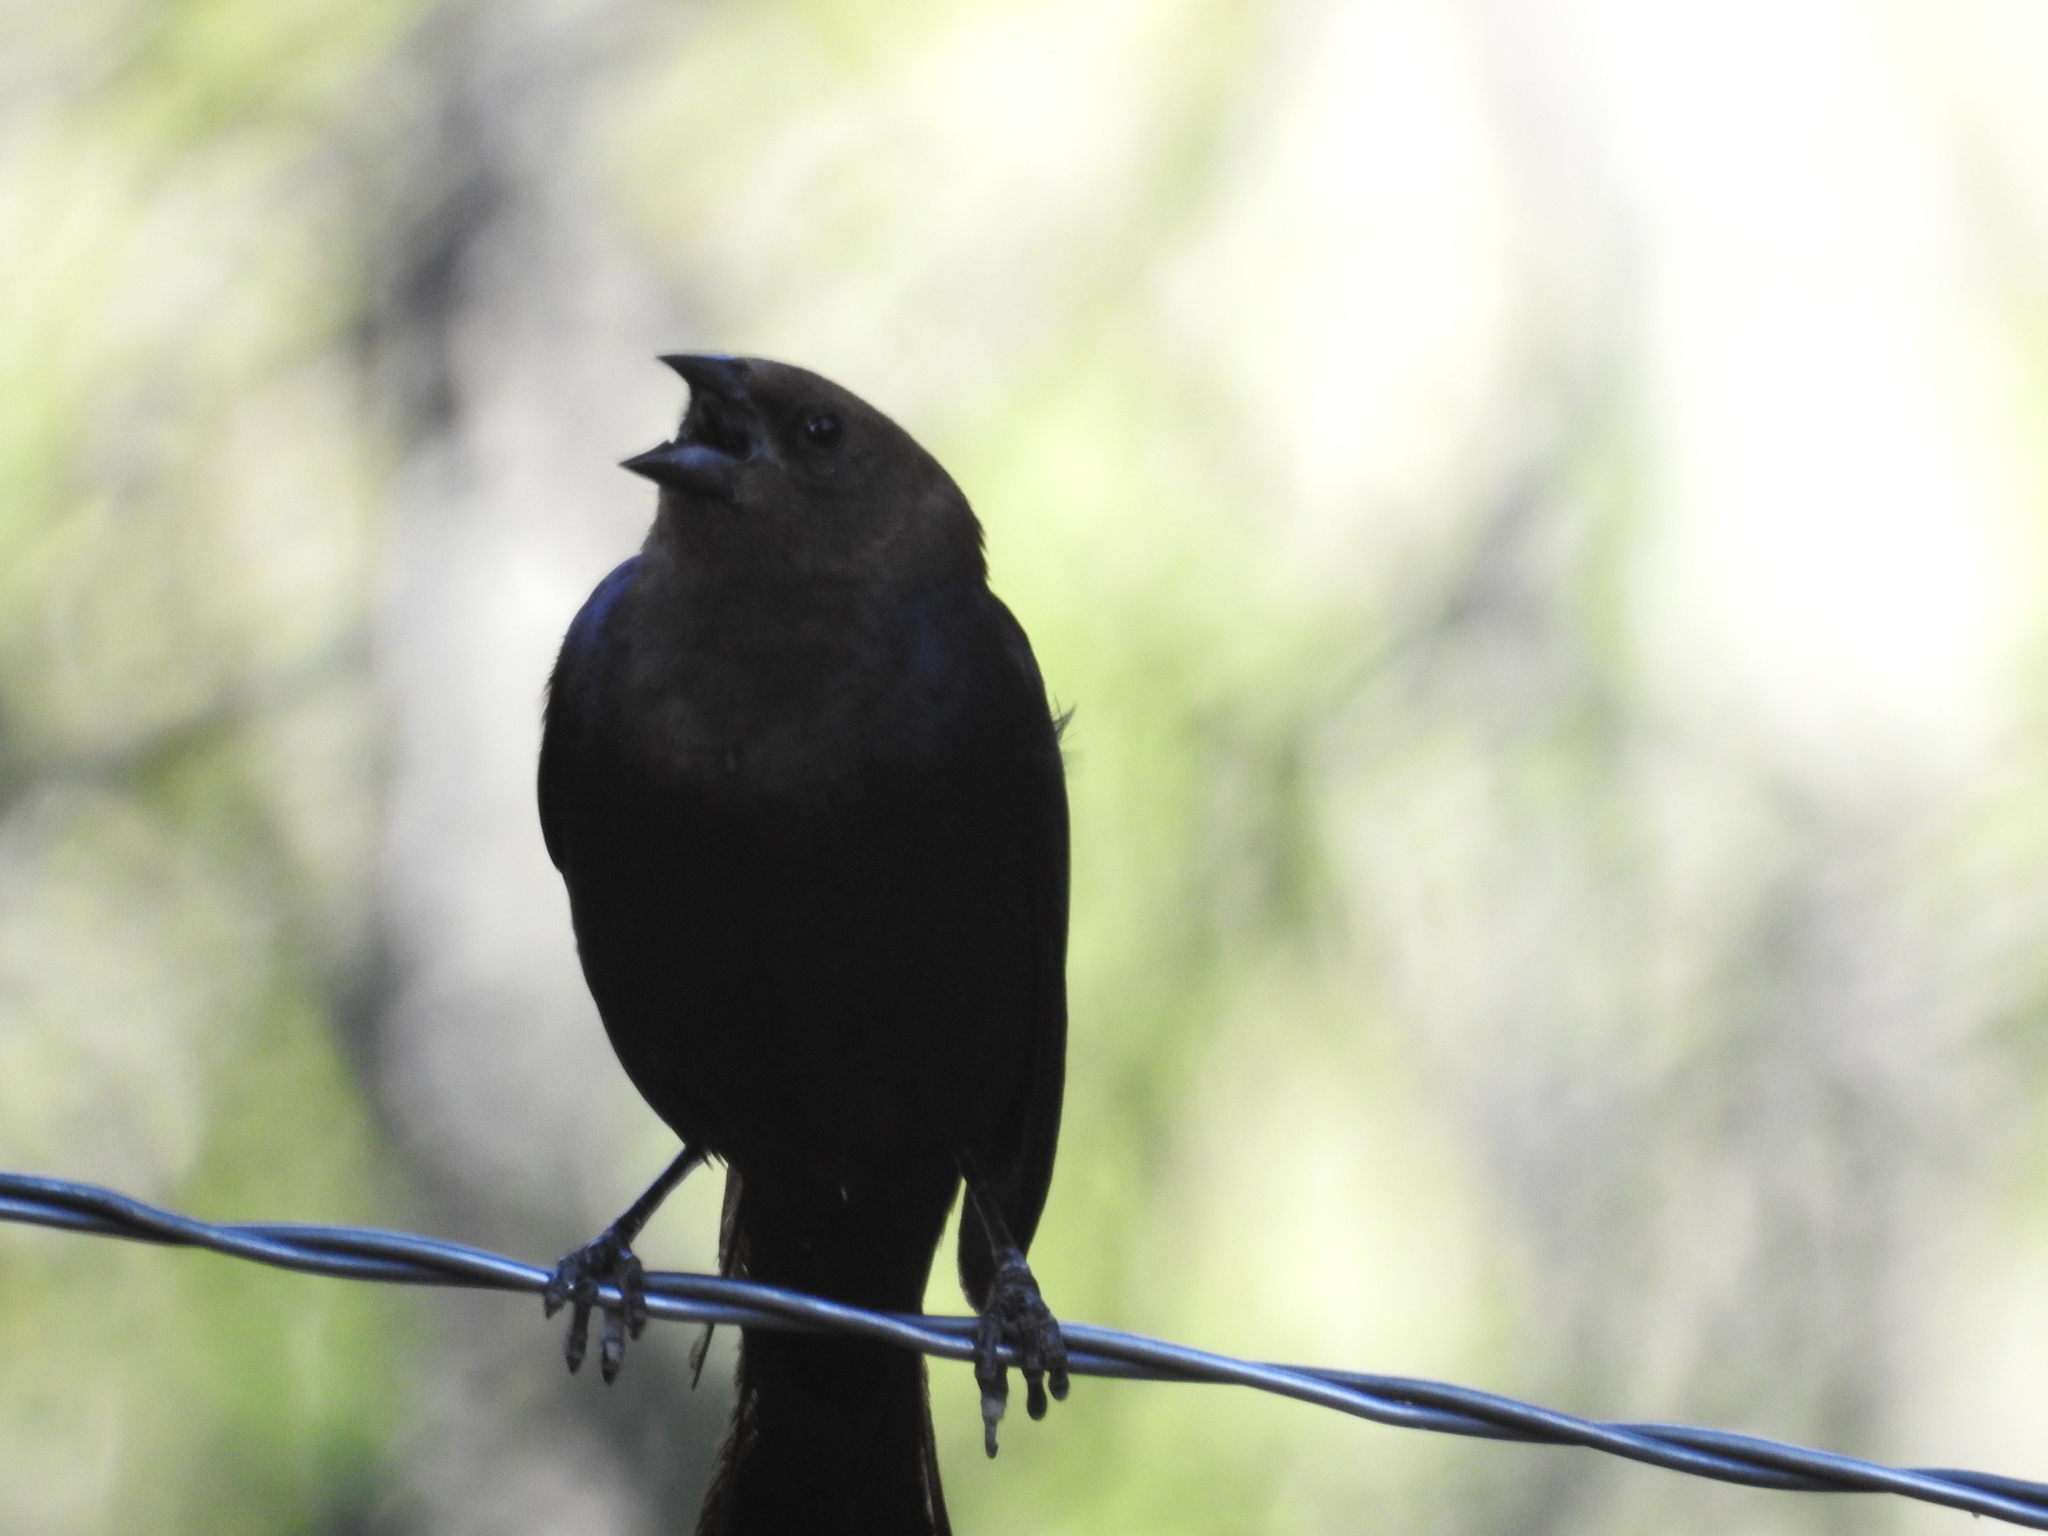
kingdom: Animalia
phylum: Chordata
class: Aves
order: Passeriformes
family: Icteridae
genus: Molothrus
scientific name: Molothrus ater
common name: Brown-headed cowbird
